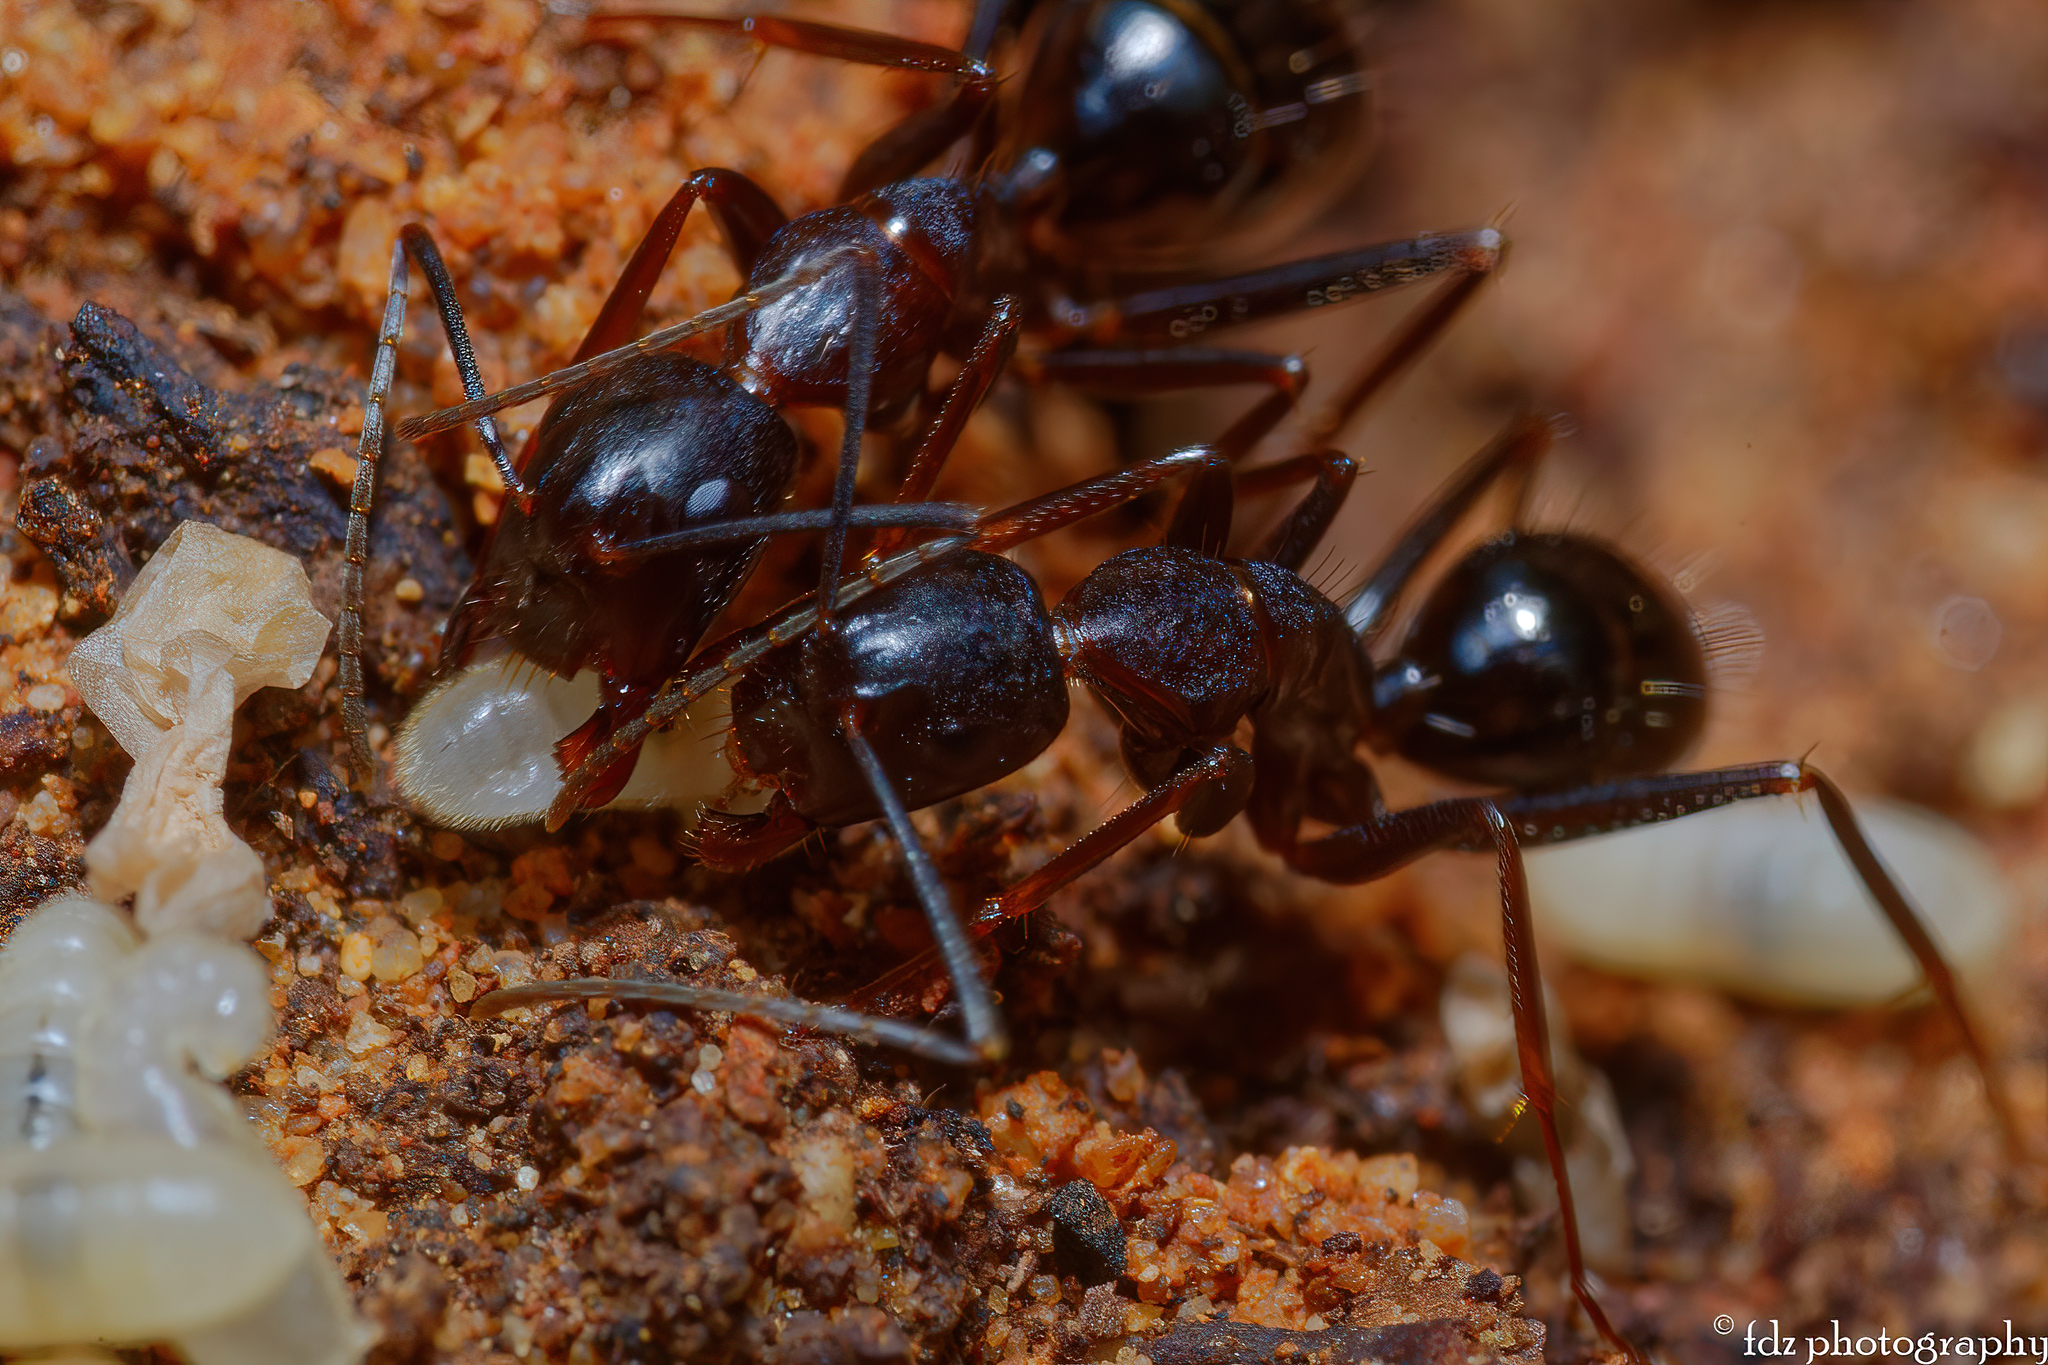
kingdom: Animalia
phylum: Arthropoda
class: Insecta
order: Hymenoptera
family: Formicidae
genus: Camponotus
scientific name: Camponotus barbaricus
